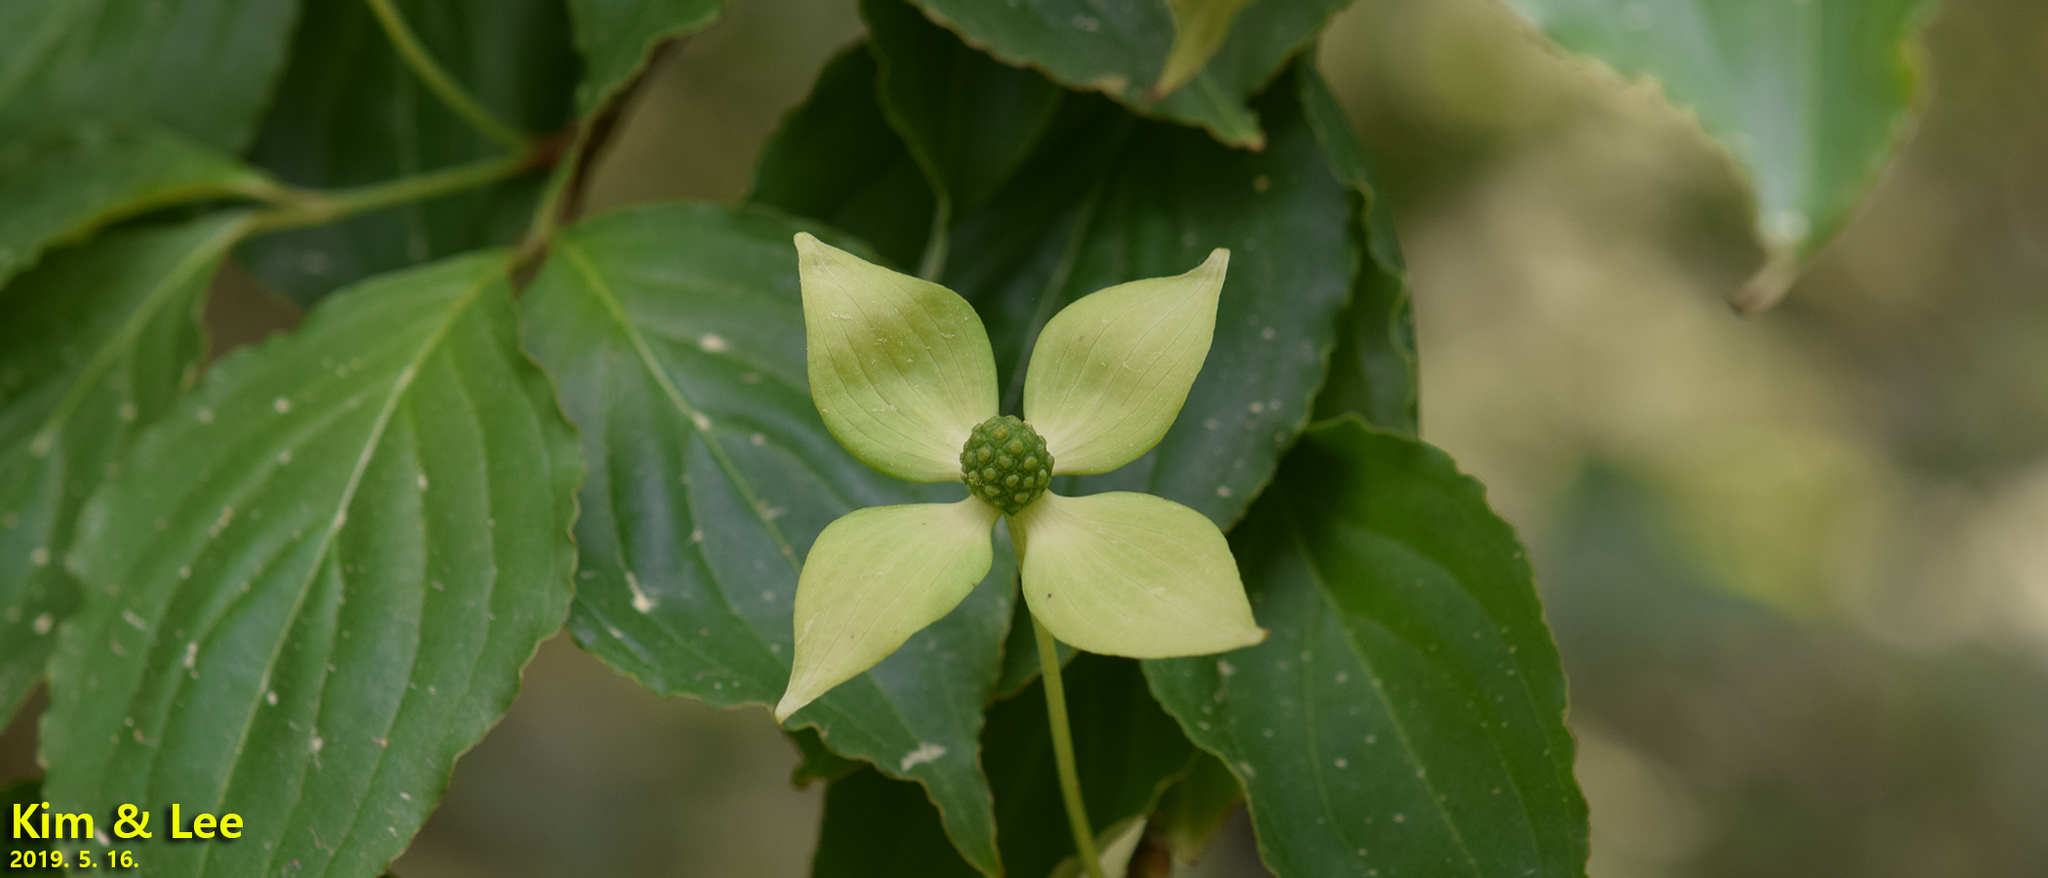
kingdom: Plantae
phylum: Tracheophyta
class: Magnoliopsida
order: Cornales
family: Cornaceae
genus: Cornus
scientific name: Cornus kousa
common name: Japanese dogwood
